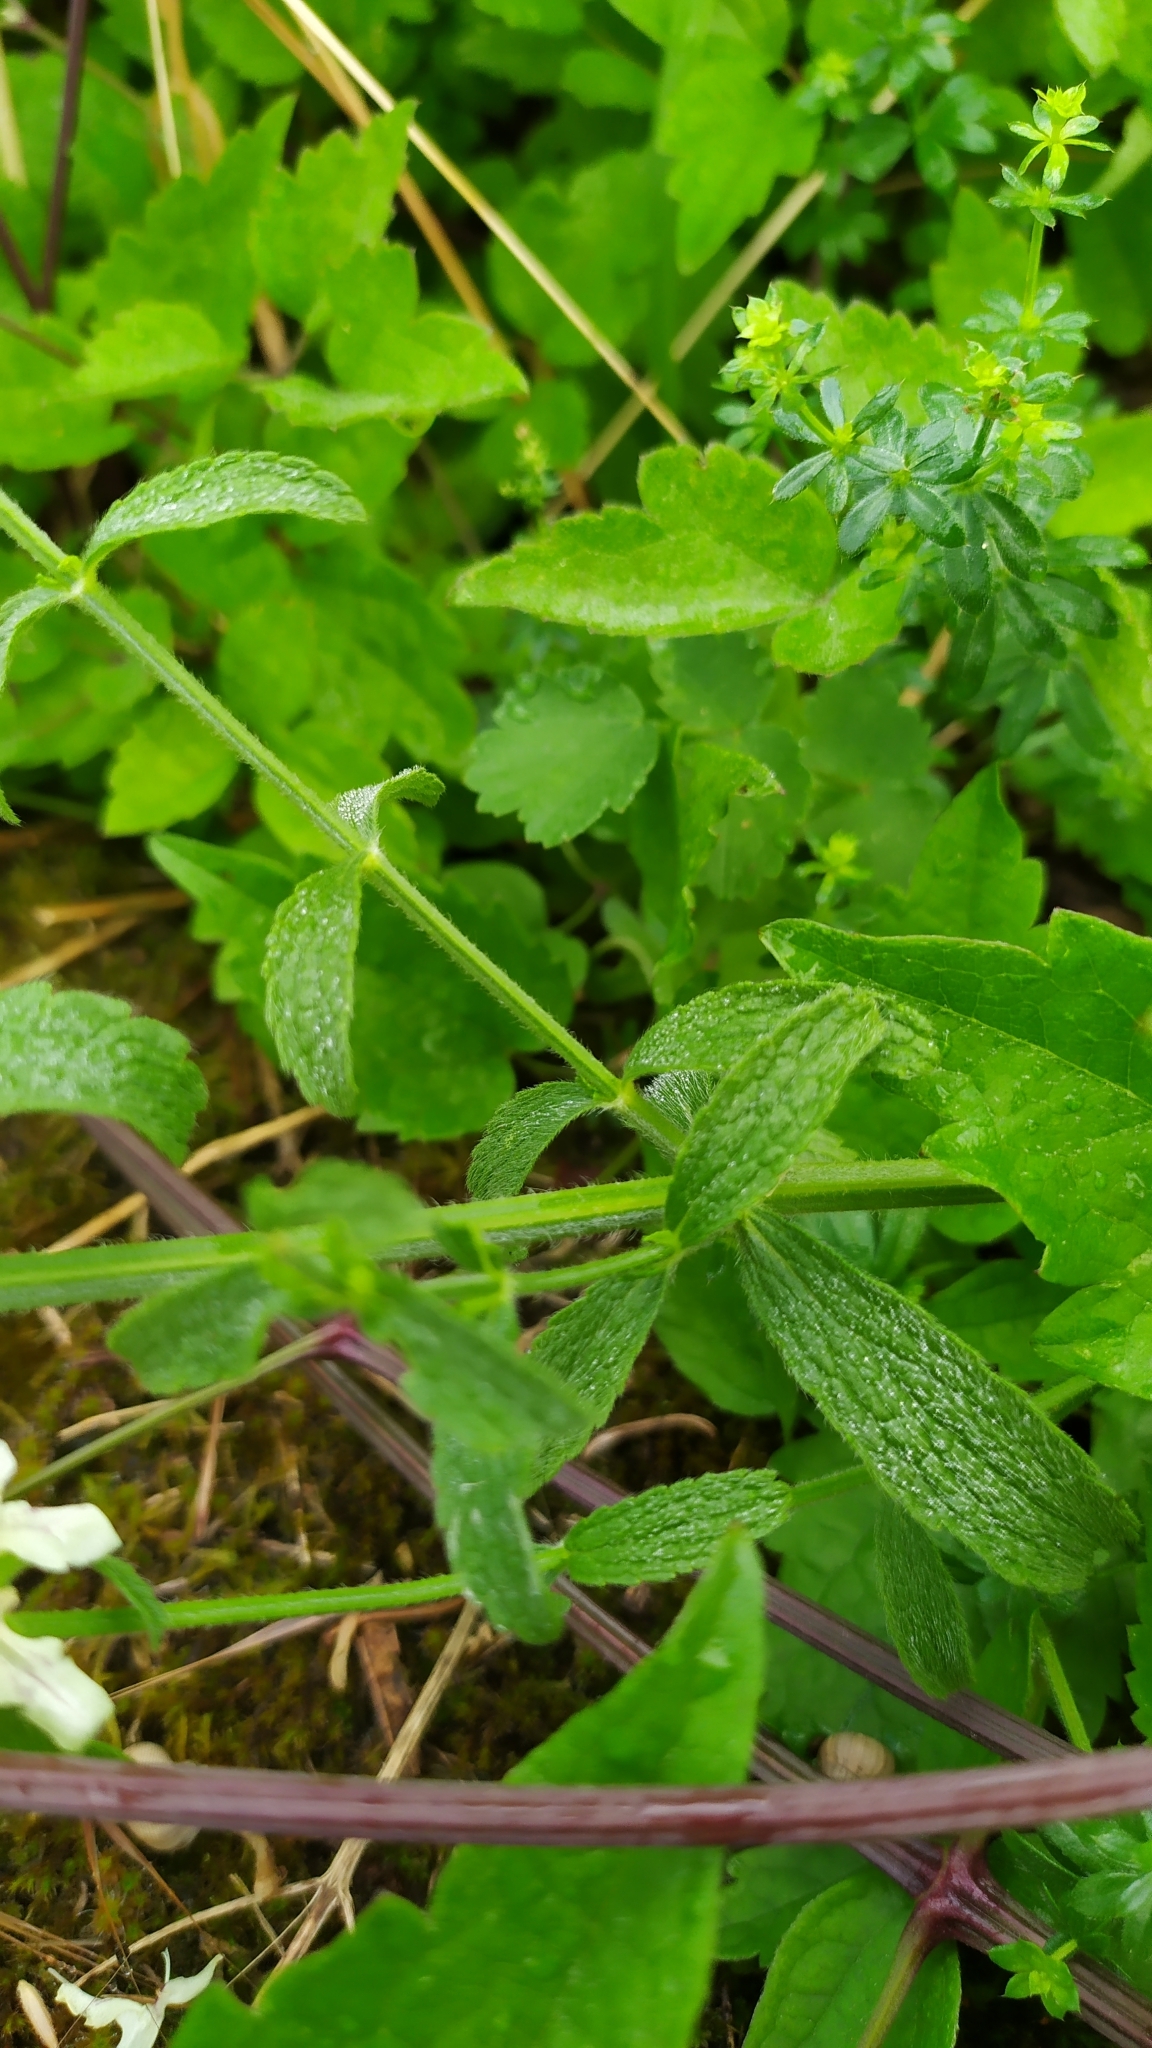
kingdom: Plantae
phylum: Tracheophyta
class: Magnoliopsida
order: Lamiales
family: Lamiaceae
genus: Stachys
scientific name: Stachys recta
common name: Perennial yellow-woundwort
